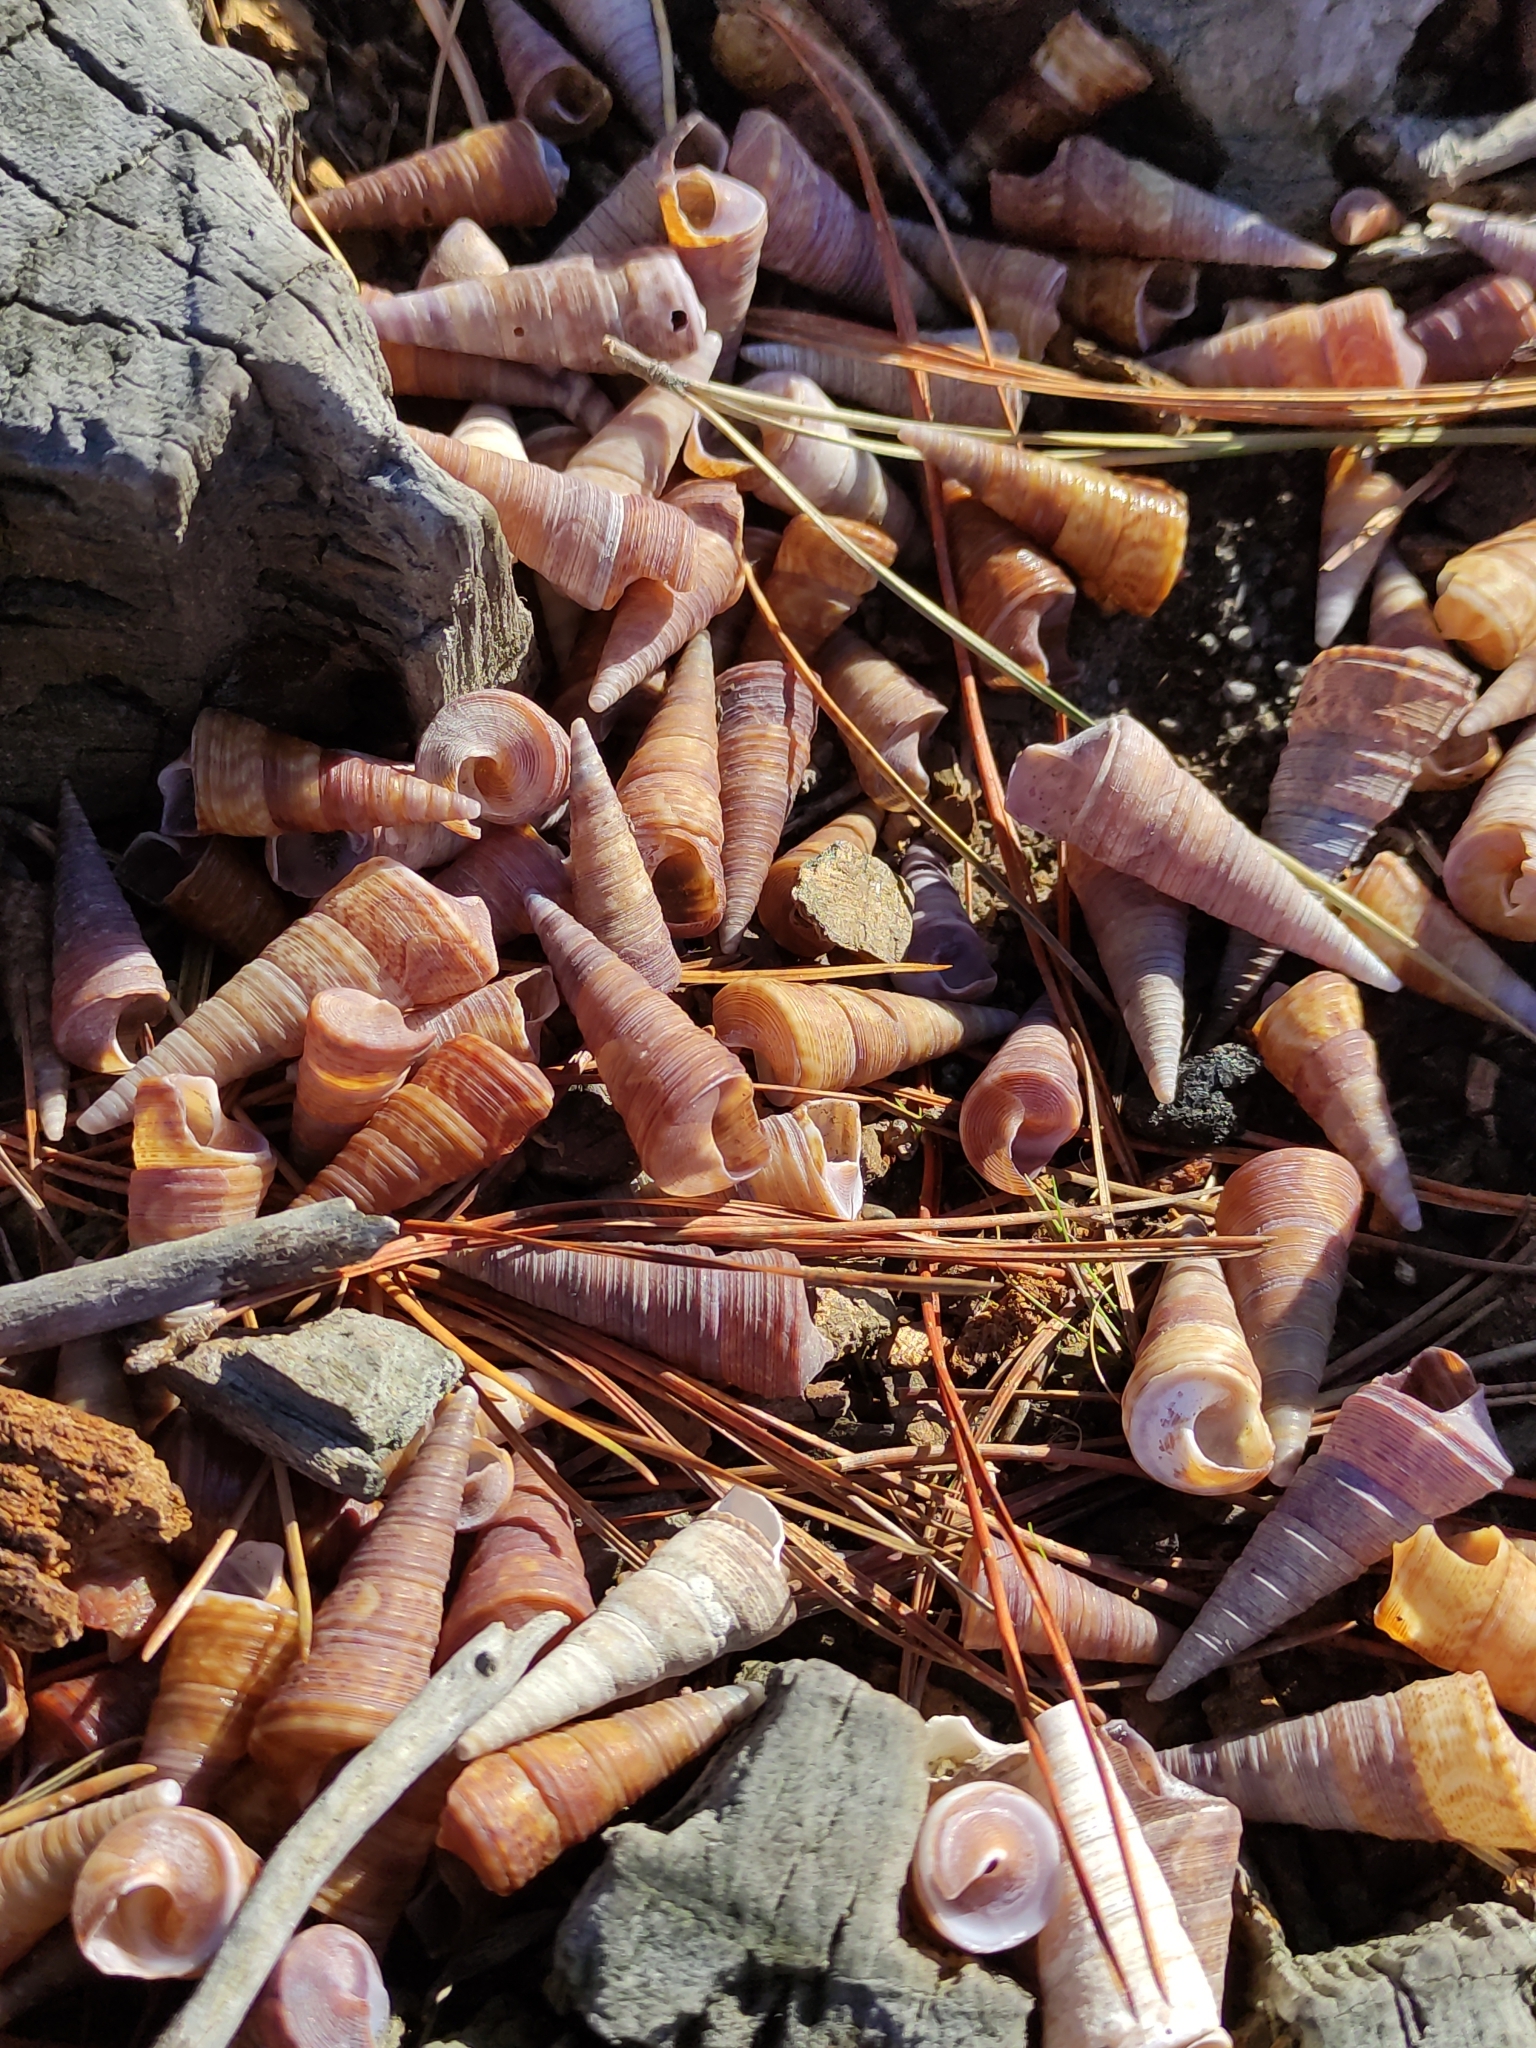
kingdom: Animalia
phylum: Mollusca
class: Gastropoda
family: Turritellidae
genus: Maoricolpus
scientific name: Maoricolpus roseus
